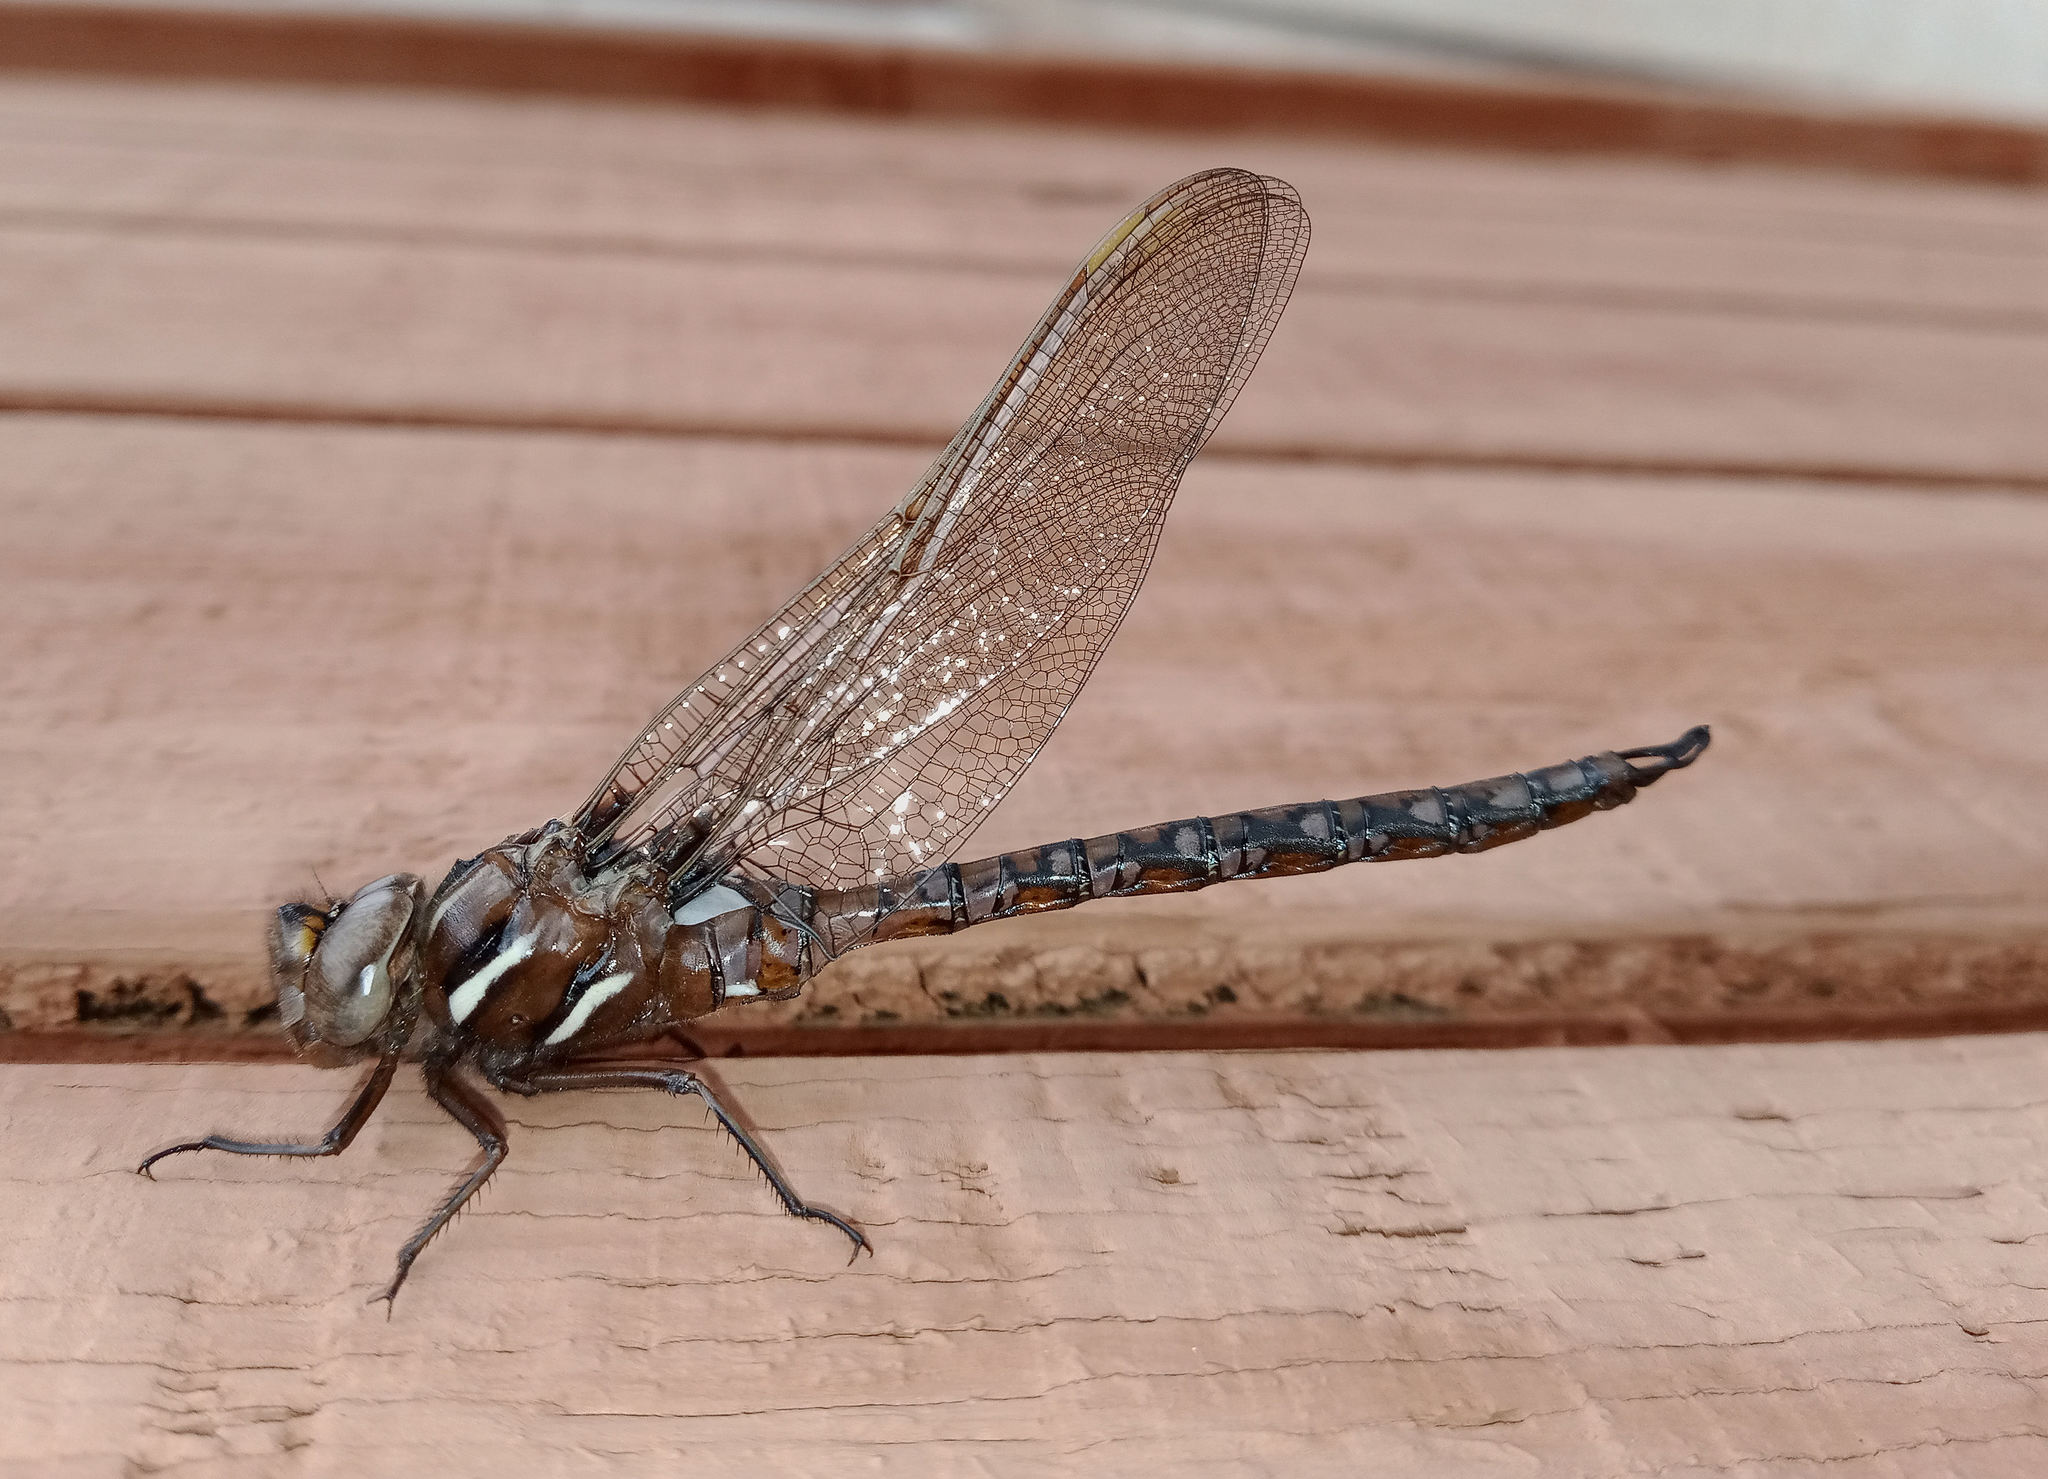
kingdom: Animalia
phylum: Arthropoda
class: Insecta
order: Odonata
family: Aeshnidae
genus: Basiaeschna
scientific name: Basiaeschna janata
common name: Springtime darner
